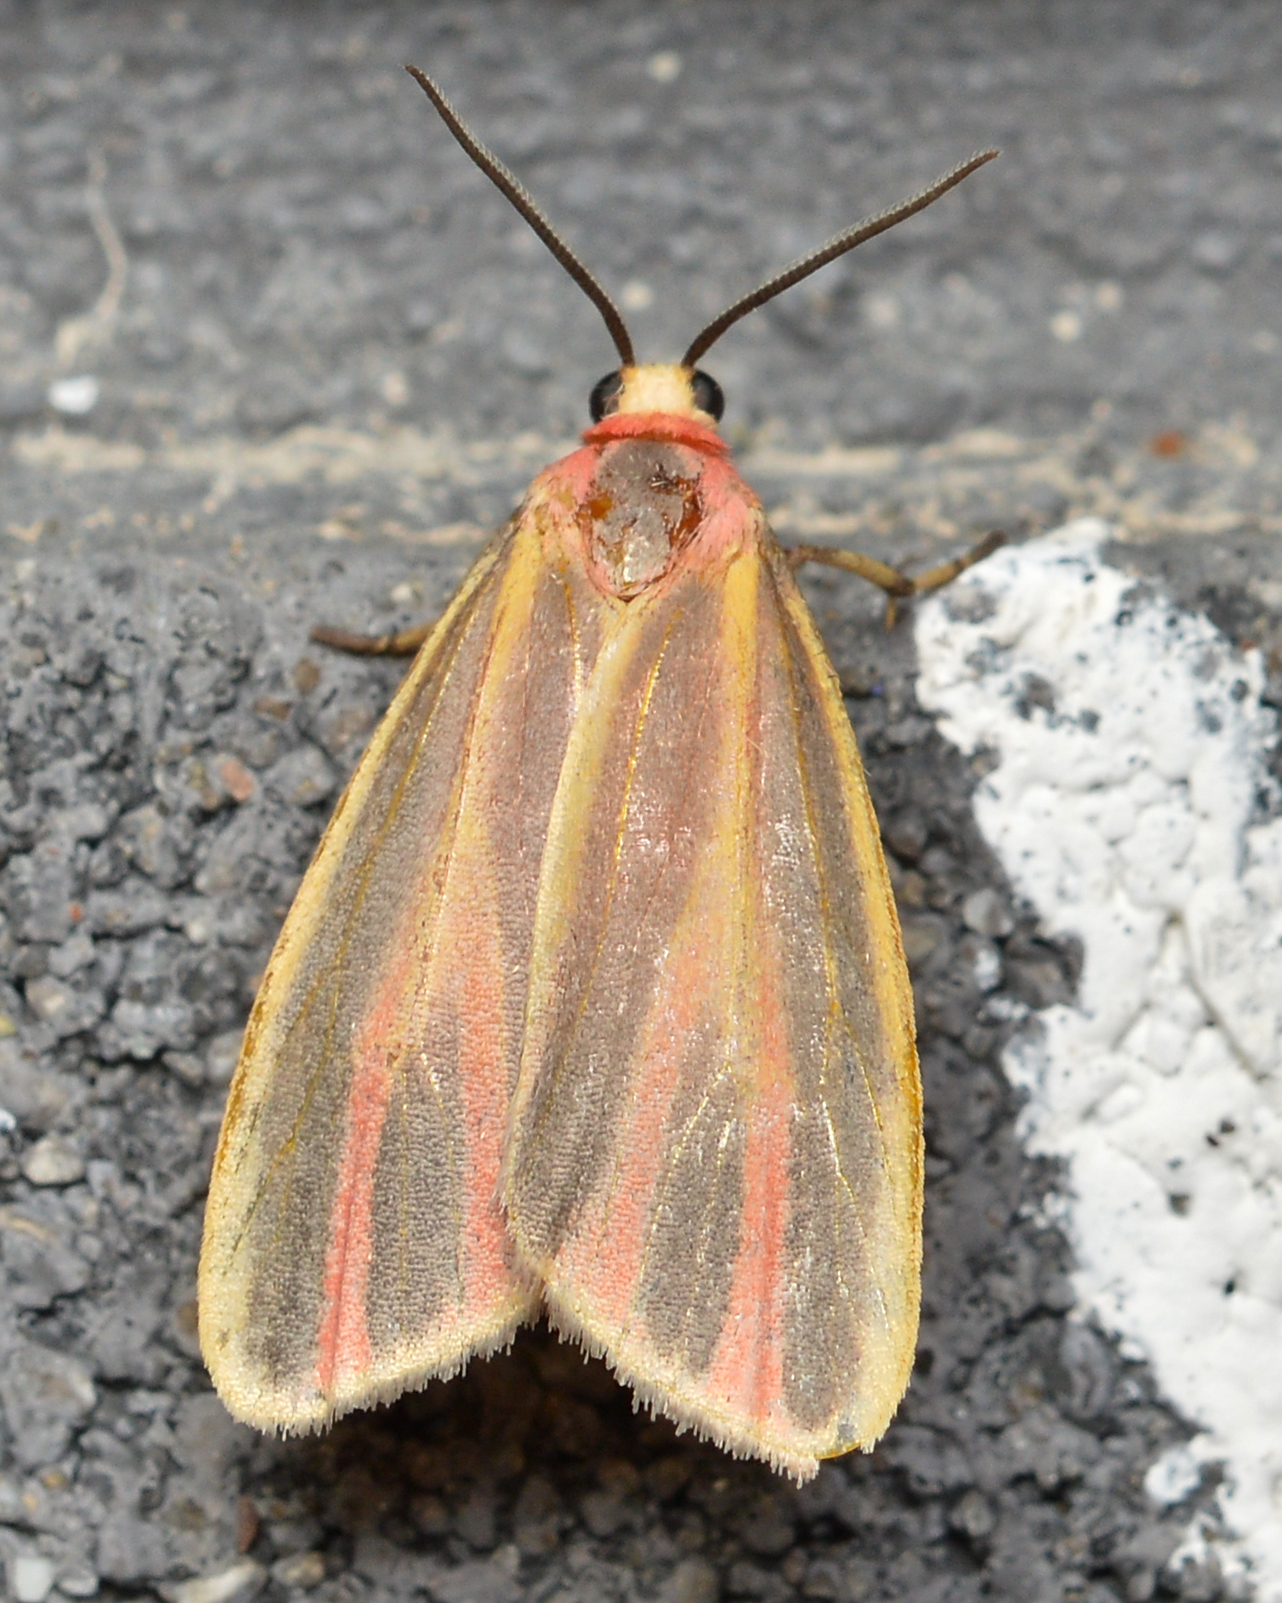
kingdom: Animalia
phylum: Arthropoda
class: Insecta
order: Lepidoptera
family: Erebidae
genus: Hypoprepia
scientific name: Hypoprepia fucosa
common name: Painted lichen moth
